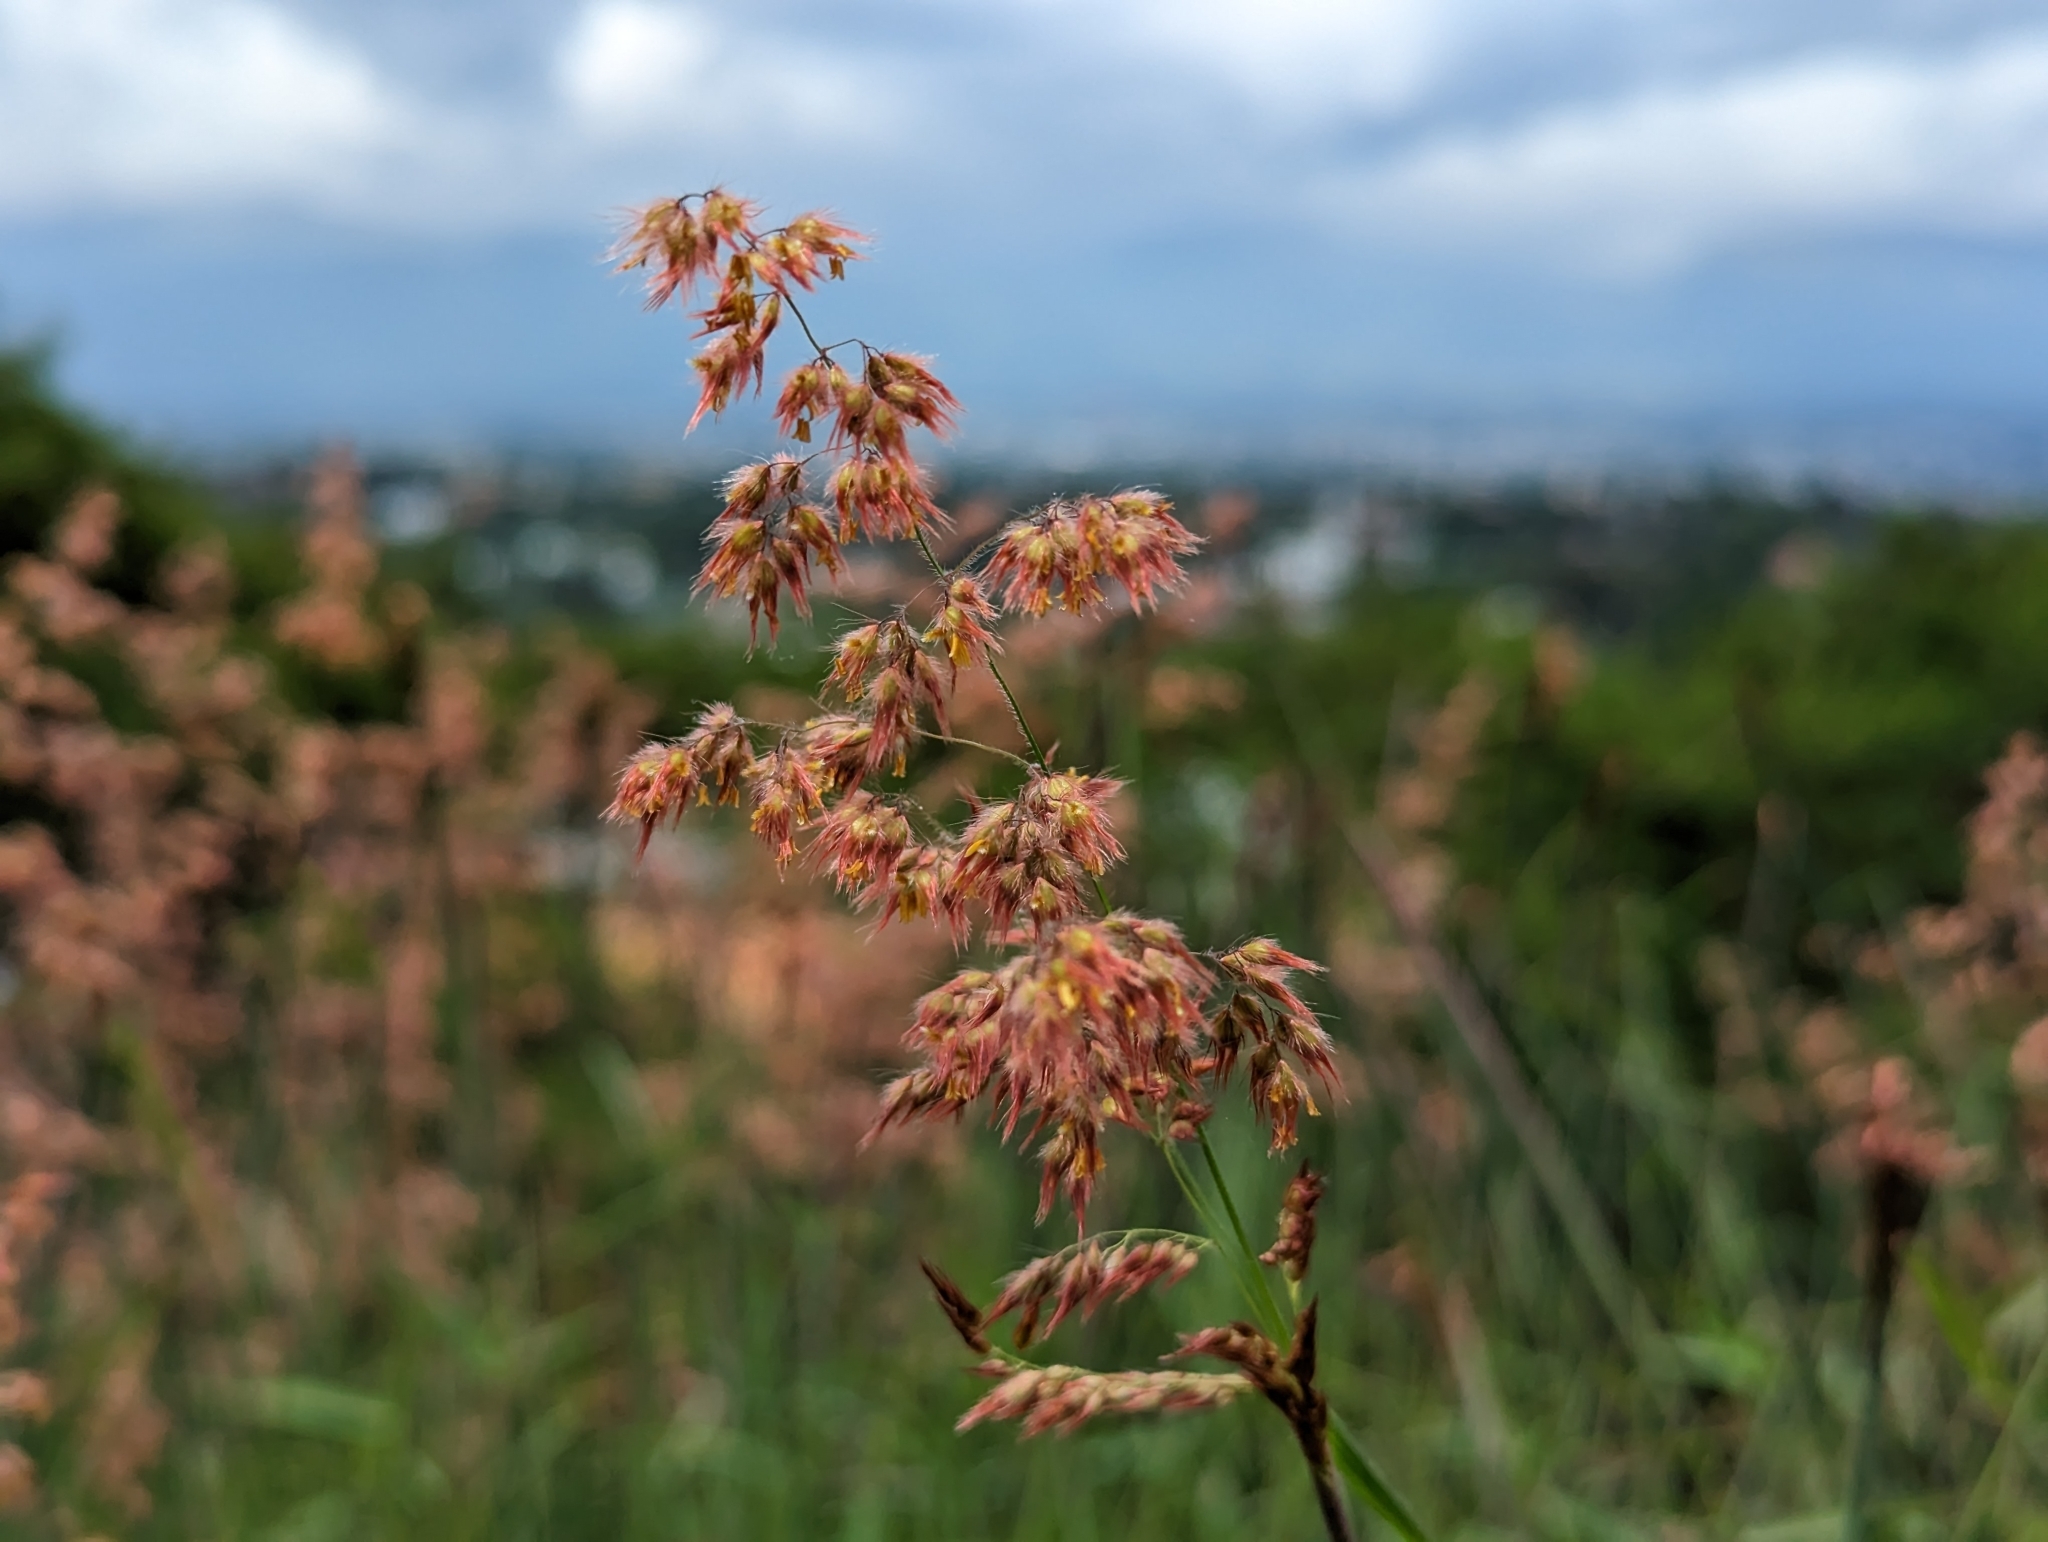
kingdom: Plantae
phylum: Tracheophyta
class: Liliopsida
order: Poales
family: Poaceae
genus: Melinis
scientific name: Melinis repens
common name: Rose natal grass
